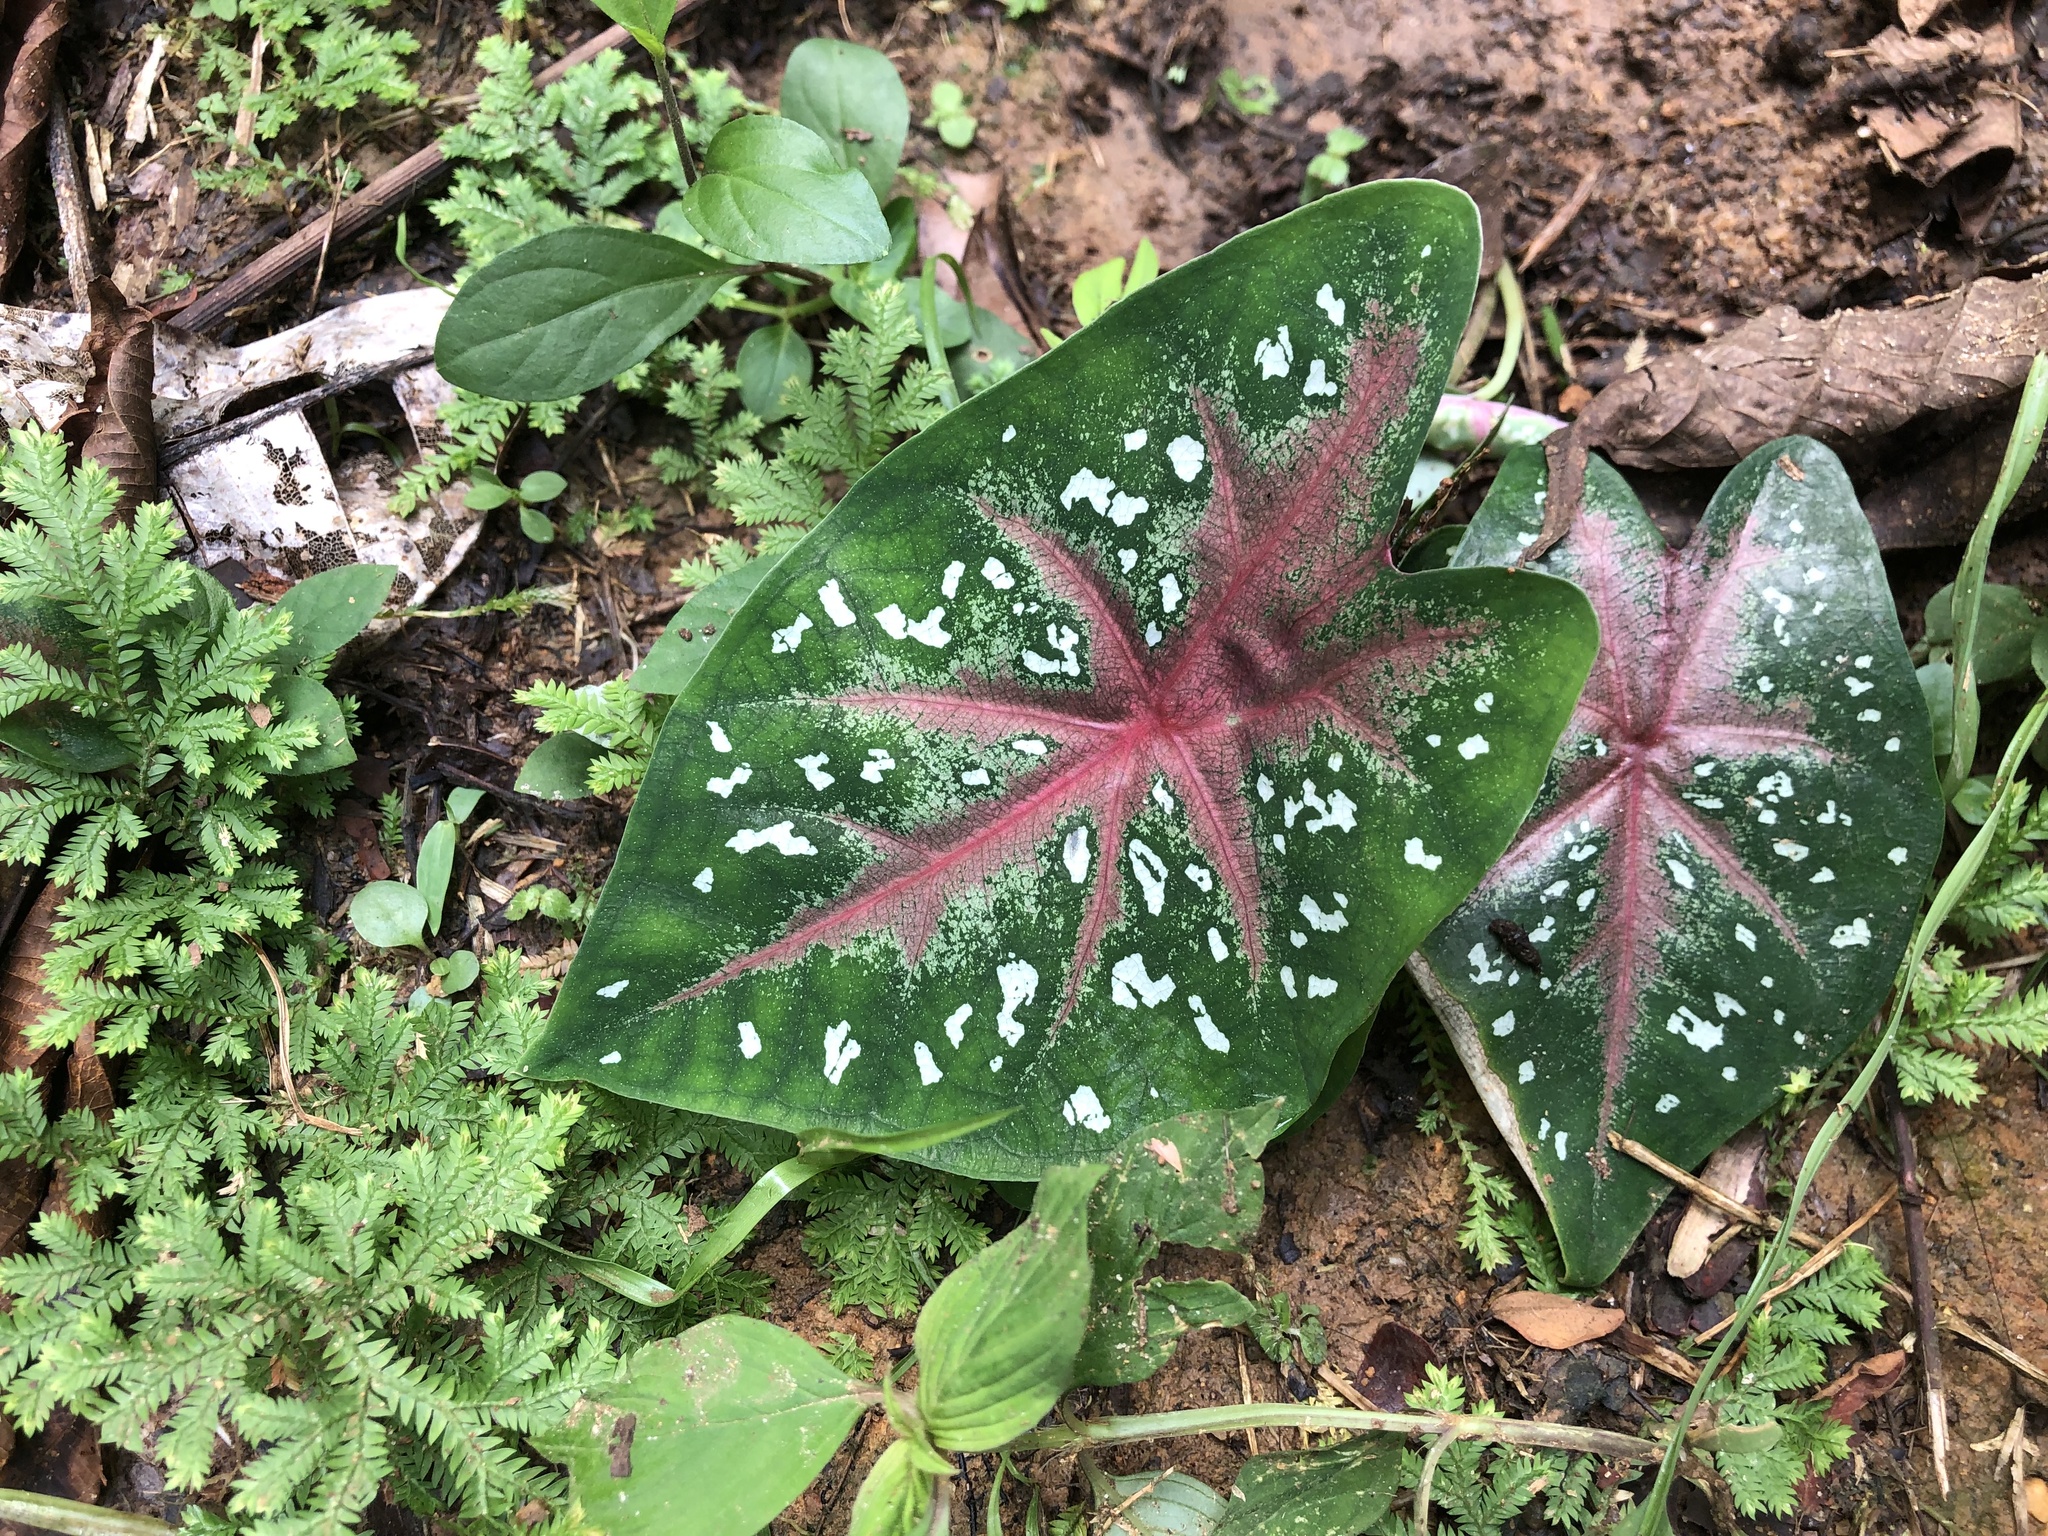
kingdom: Plantae
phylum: Tracheophyta
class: Liliopsida
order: Alismatales
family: Araceae
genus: Caladium
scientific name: Caladium bicolor
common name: Artist's pallet
